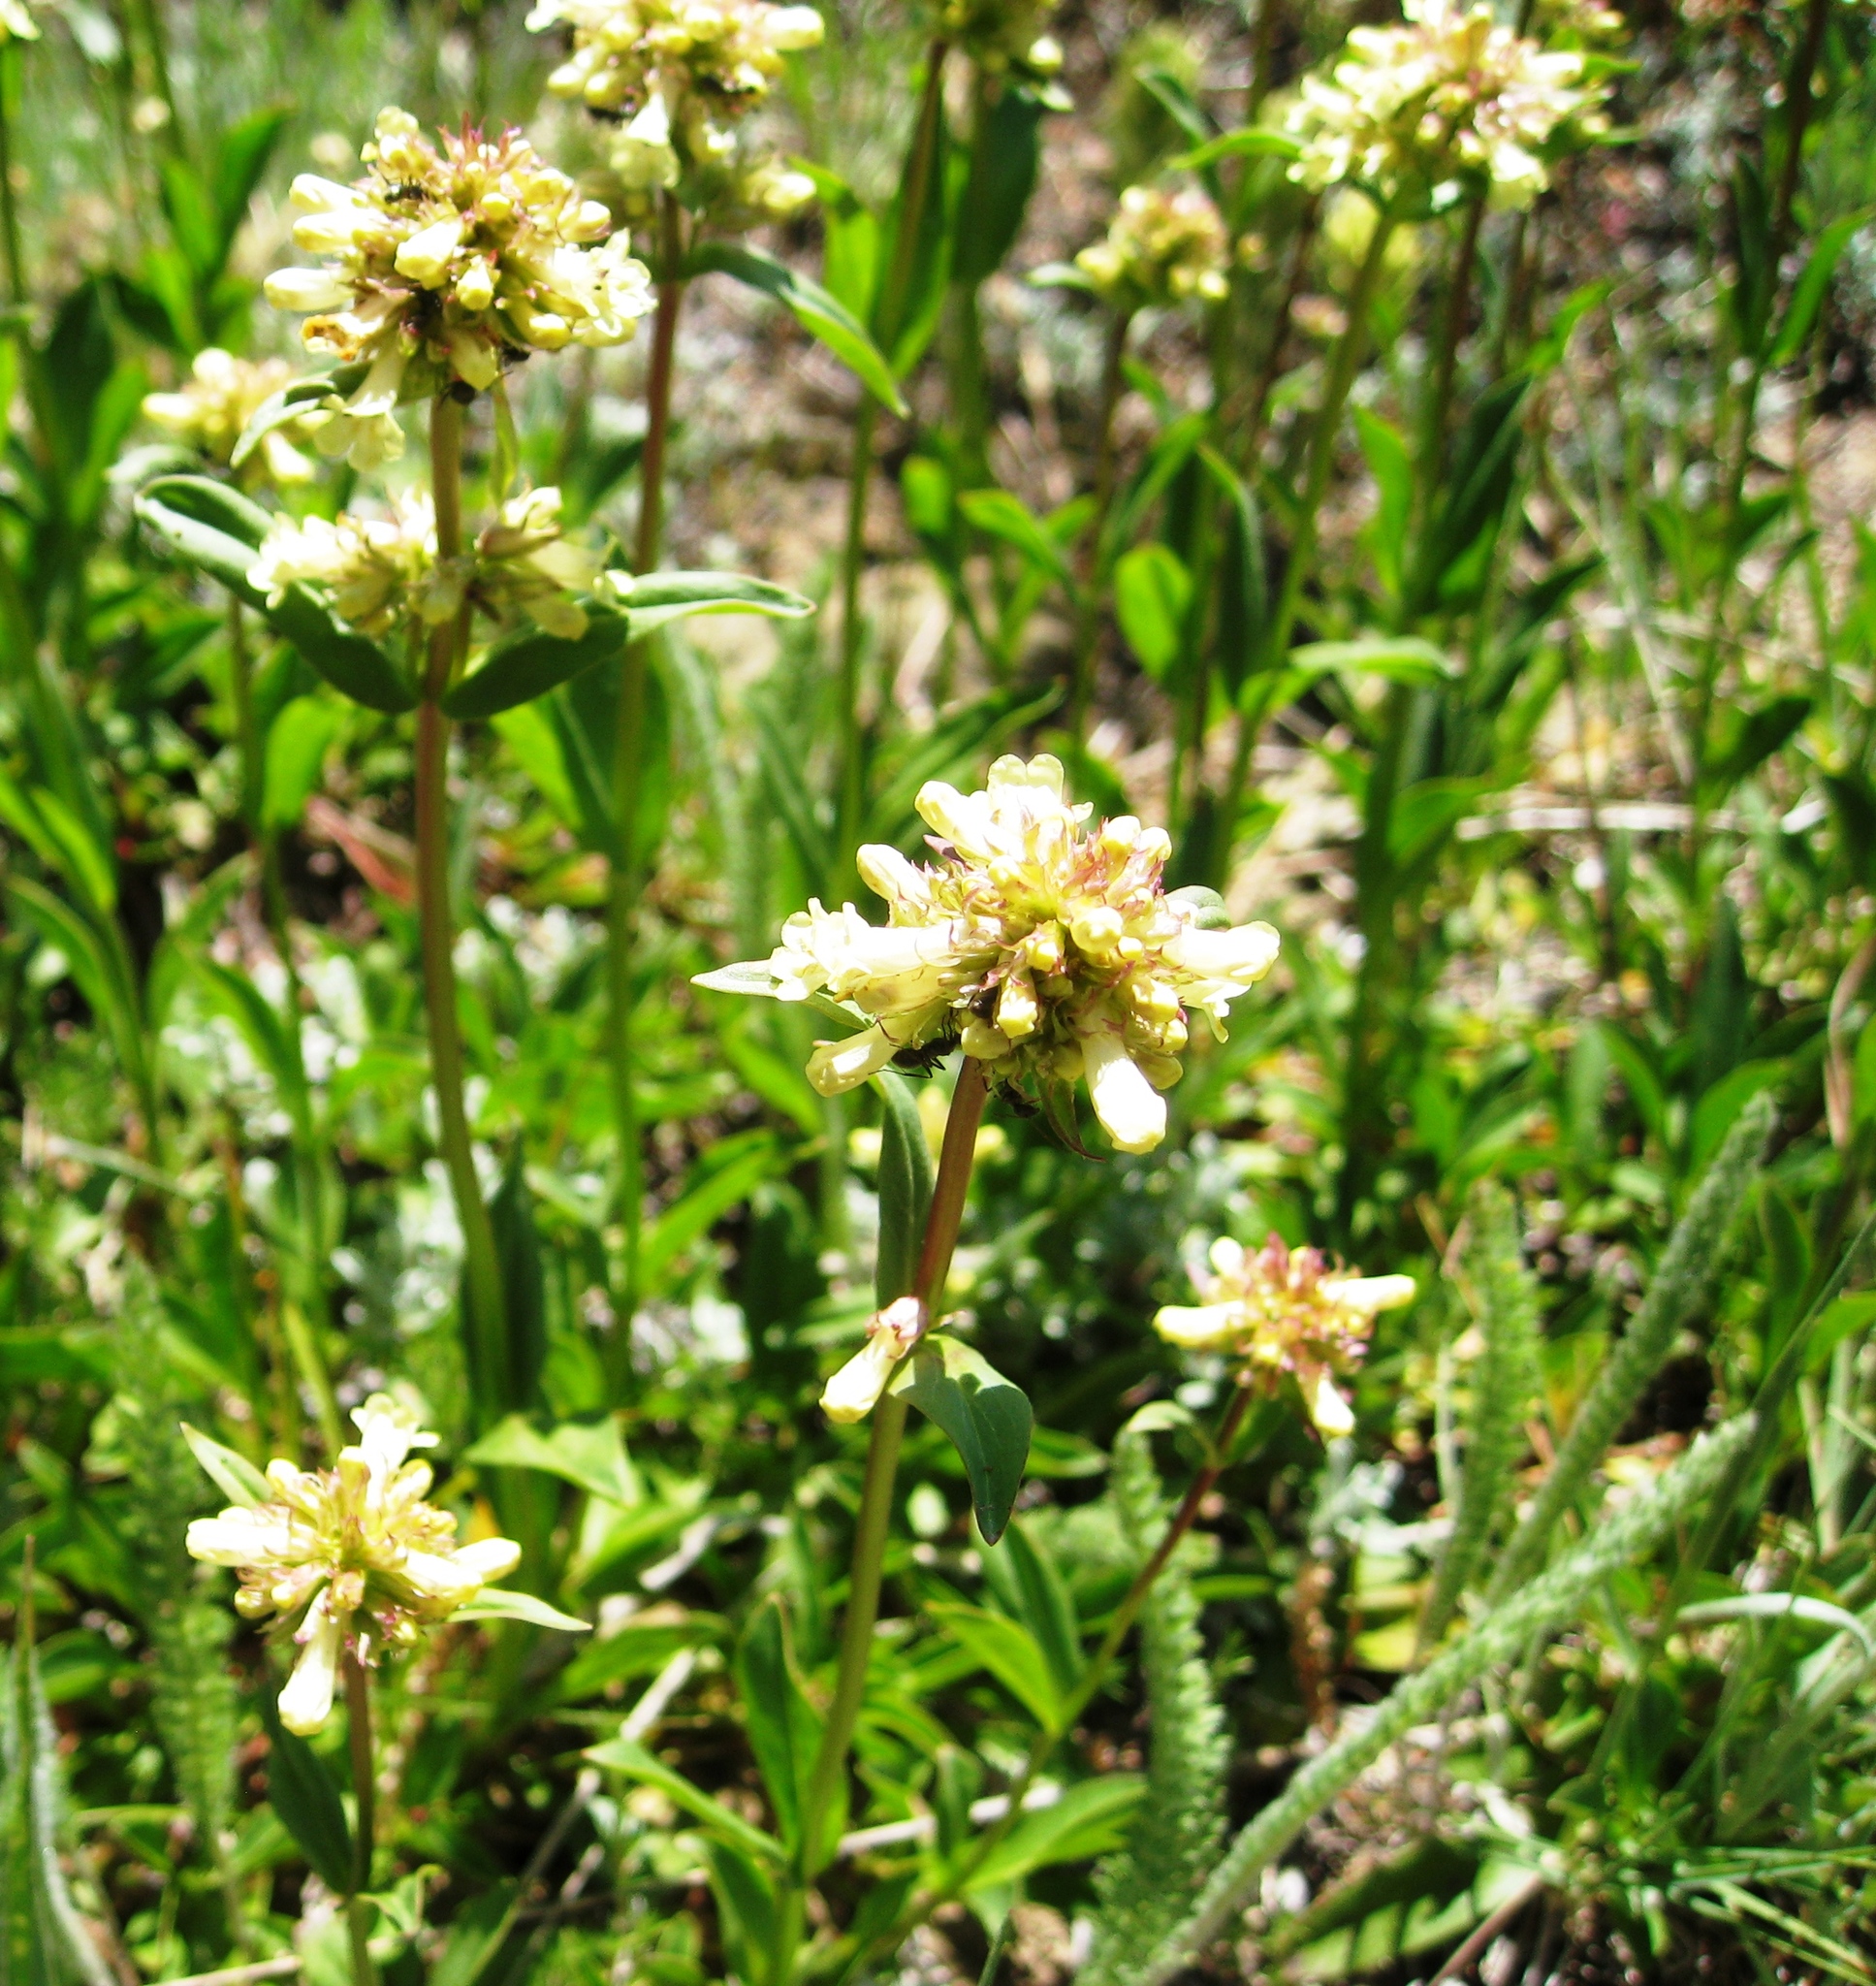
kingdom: Plantae
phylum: Tracheophyta
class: Magnoliopsida
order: Lamiales
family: Plantaginaceae
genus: Penstemon
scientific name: Penstemon confertus
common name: Lesser yellow beardtongue
